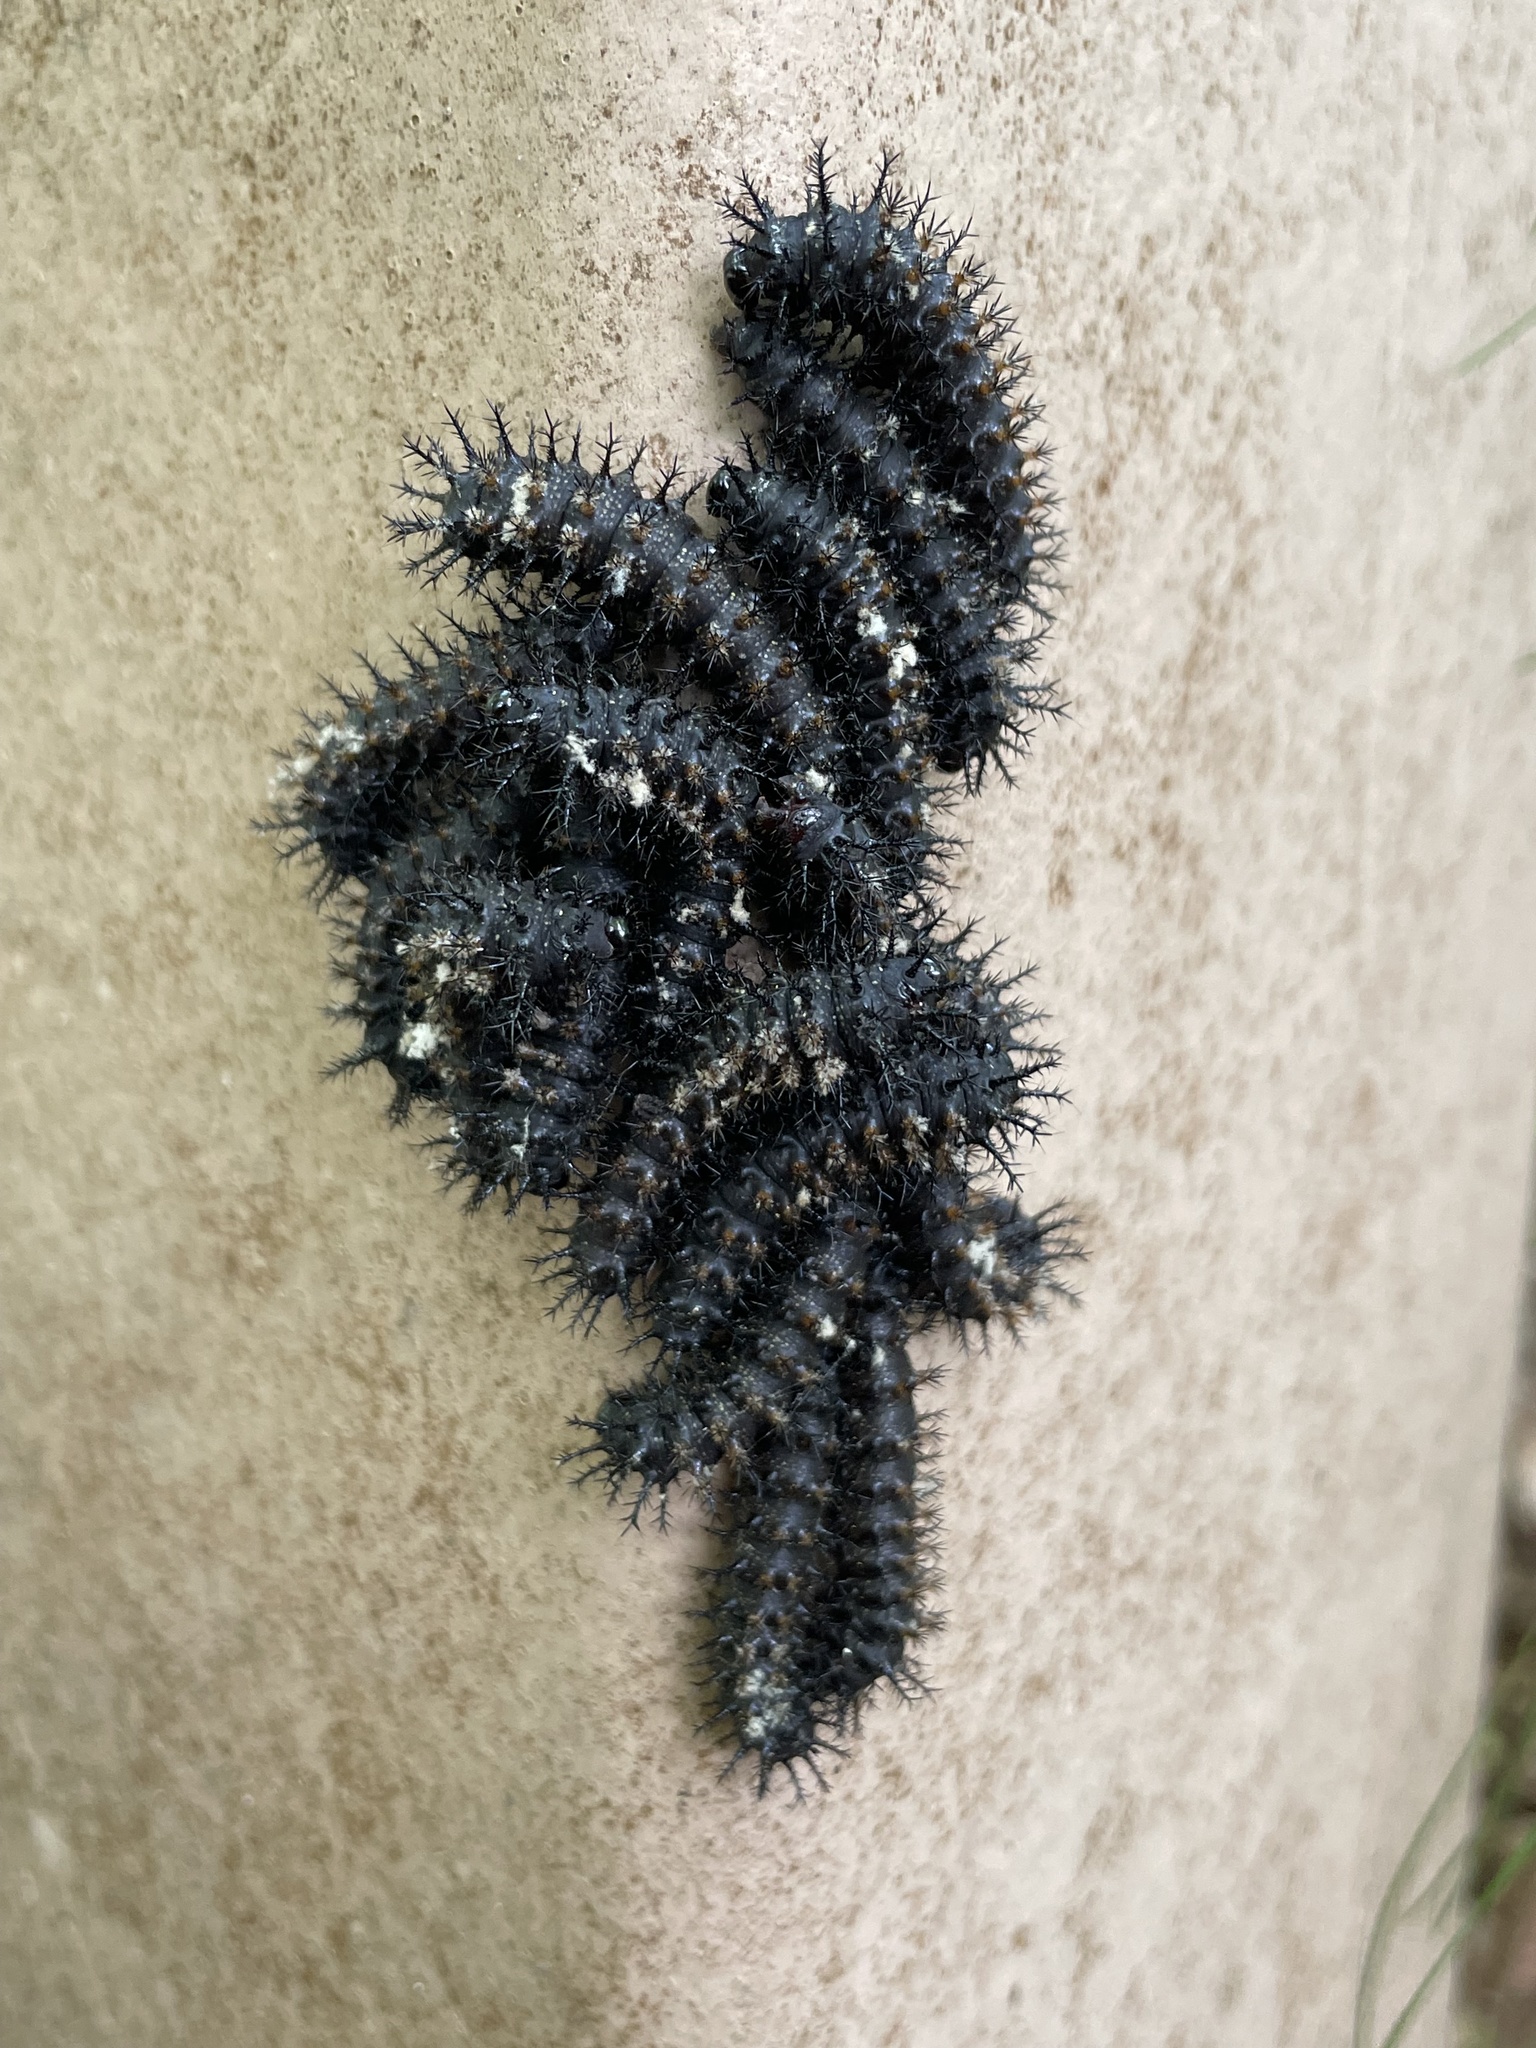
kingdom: Animalia
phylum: Arthropoda
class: Insecta
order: Lepidoptera
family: Saturniidae
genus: Hemileuca
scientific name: Hemileuca maia
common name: Eastern buckmoth
